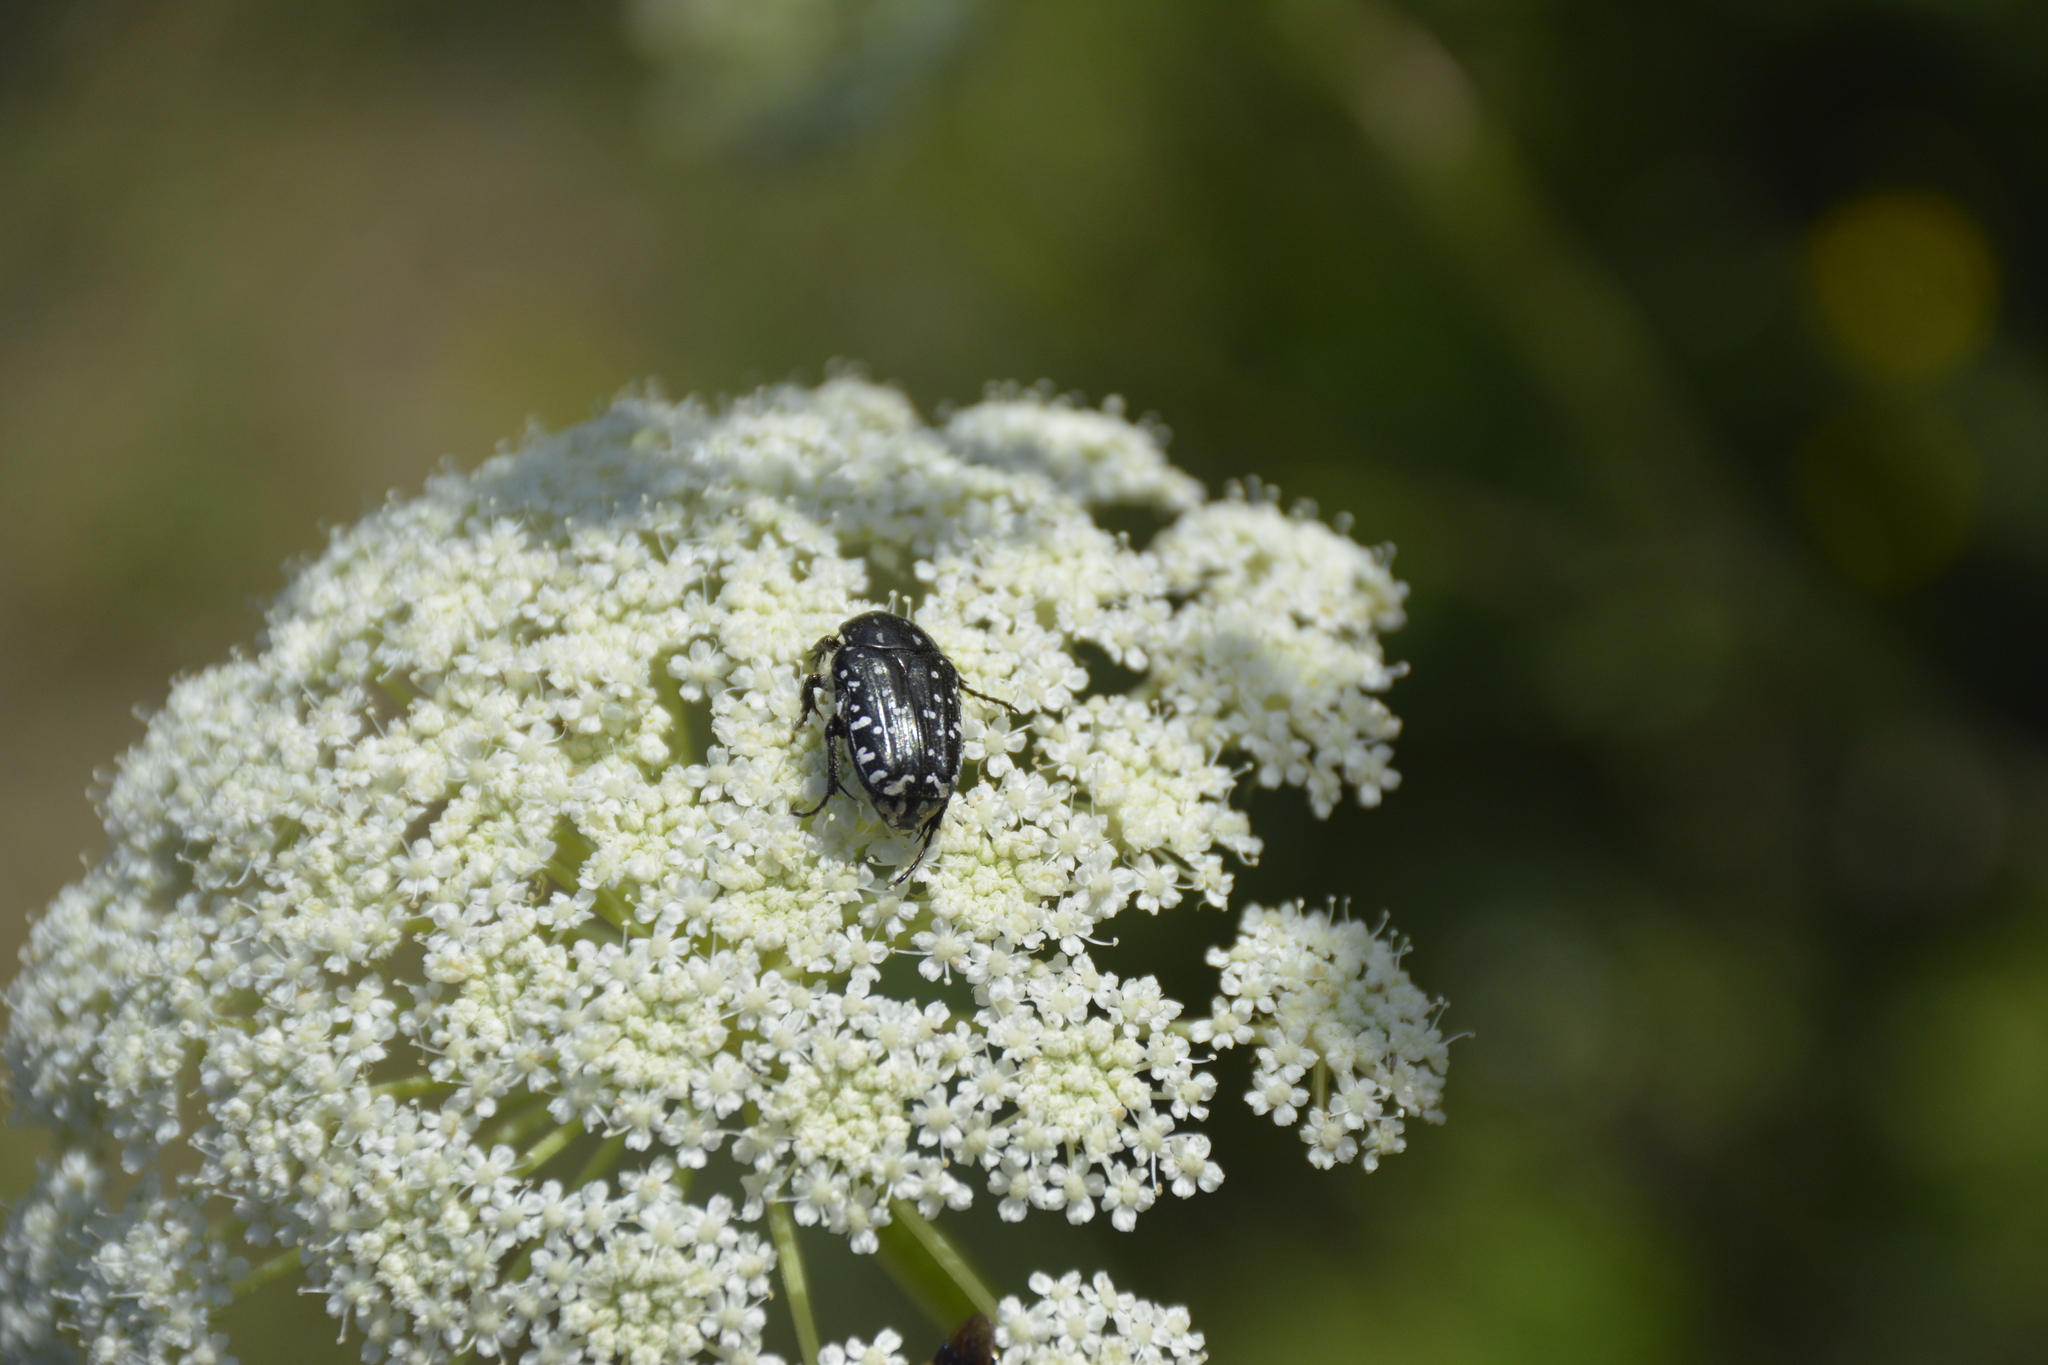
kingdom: Animalia
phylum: Arthropoda
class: Insecta
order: Coleoptera
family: Scarabaeidae
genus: Oxythyrea
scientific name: Oxythyrea funesta
